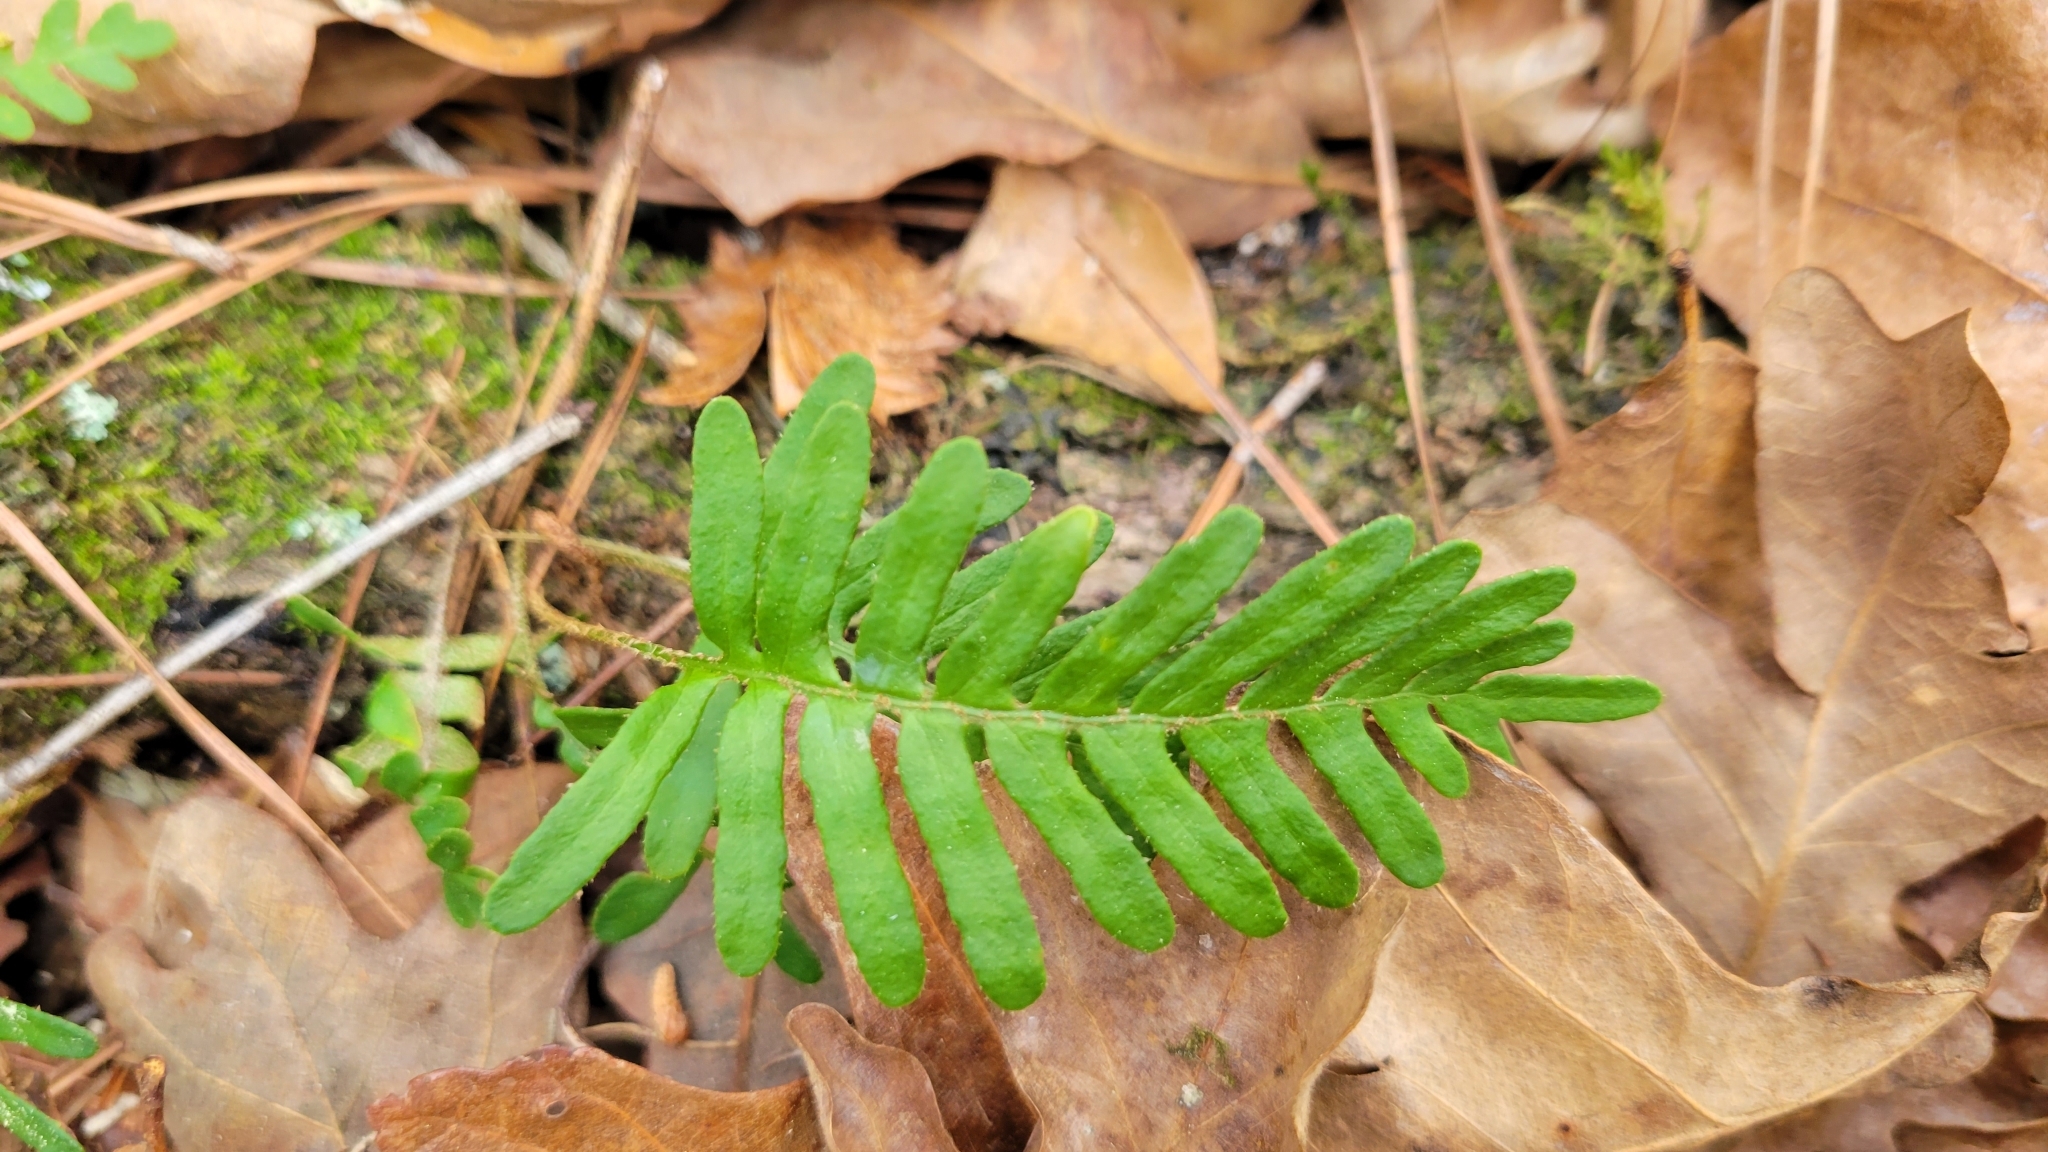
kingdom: Plantae
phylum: Tracheophyta
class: Polypodiopsida
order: Polypodiales
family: Polypodiaceae
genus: Pleopeltis
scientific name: Pleopeltis michauxiana
